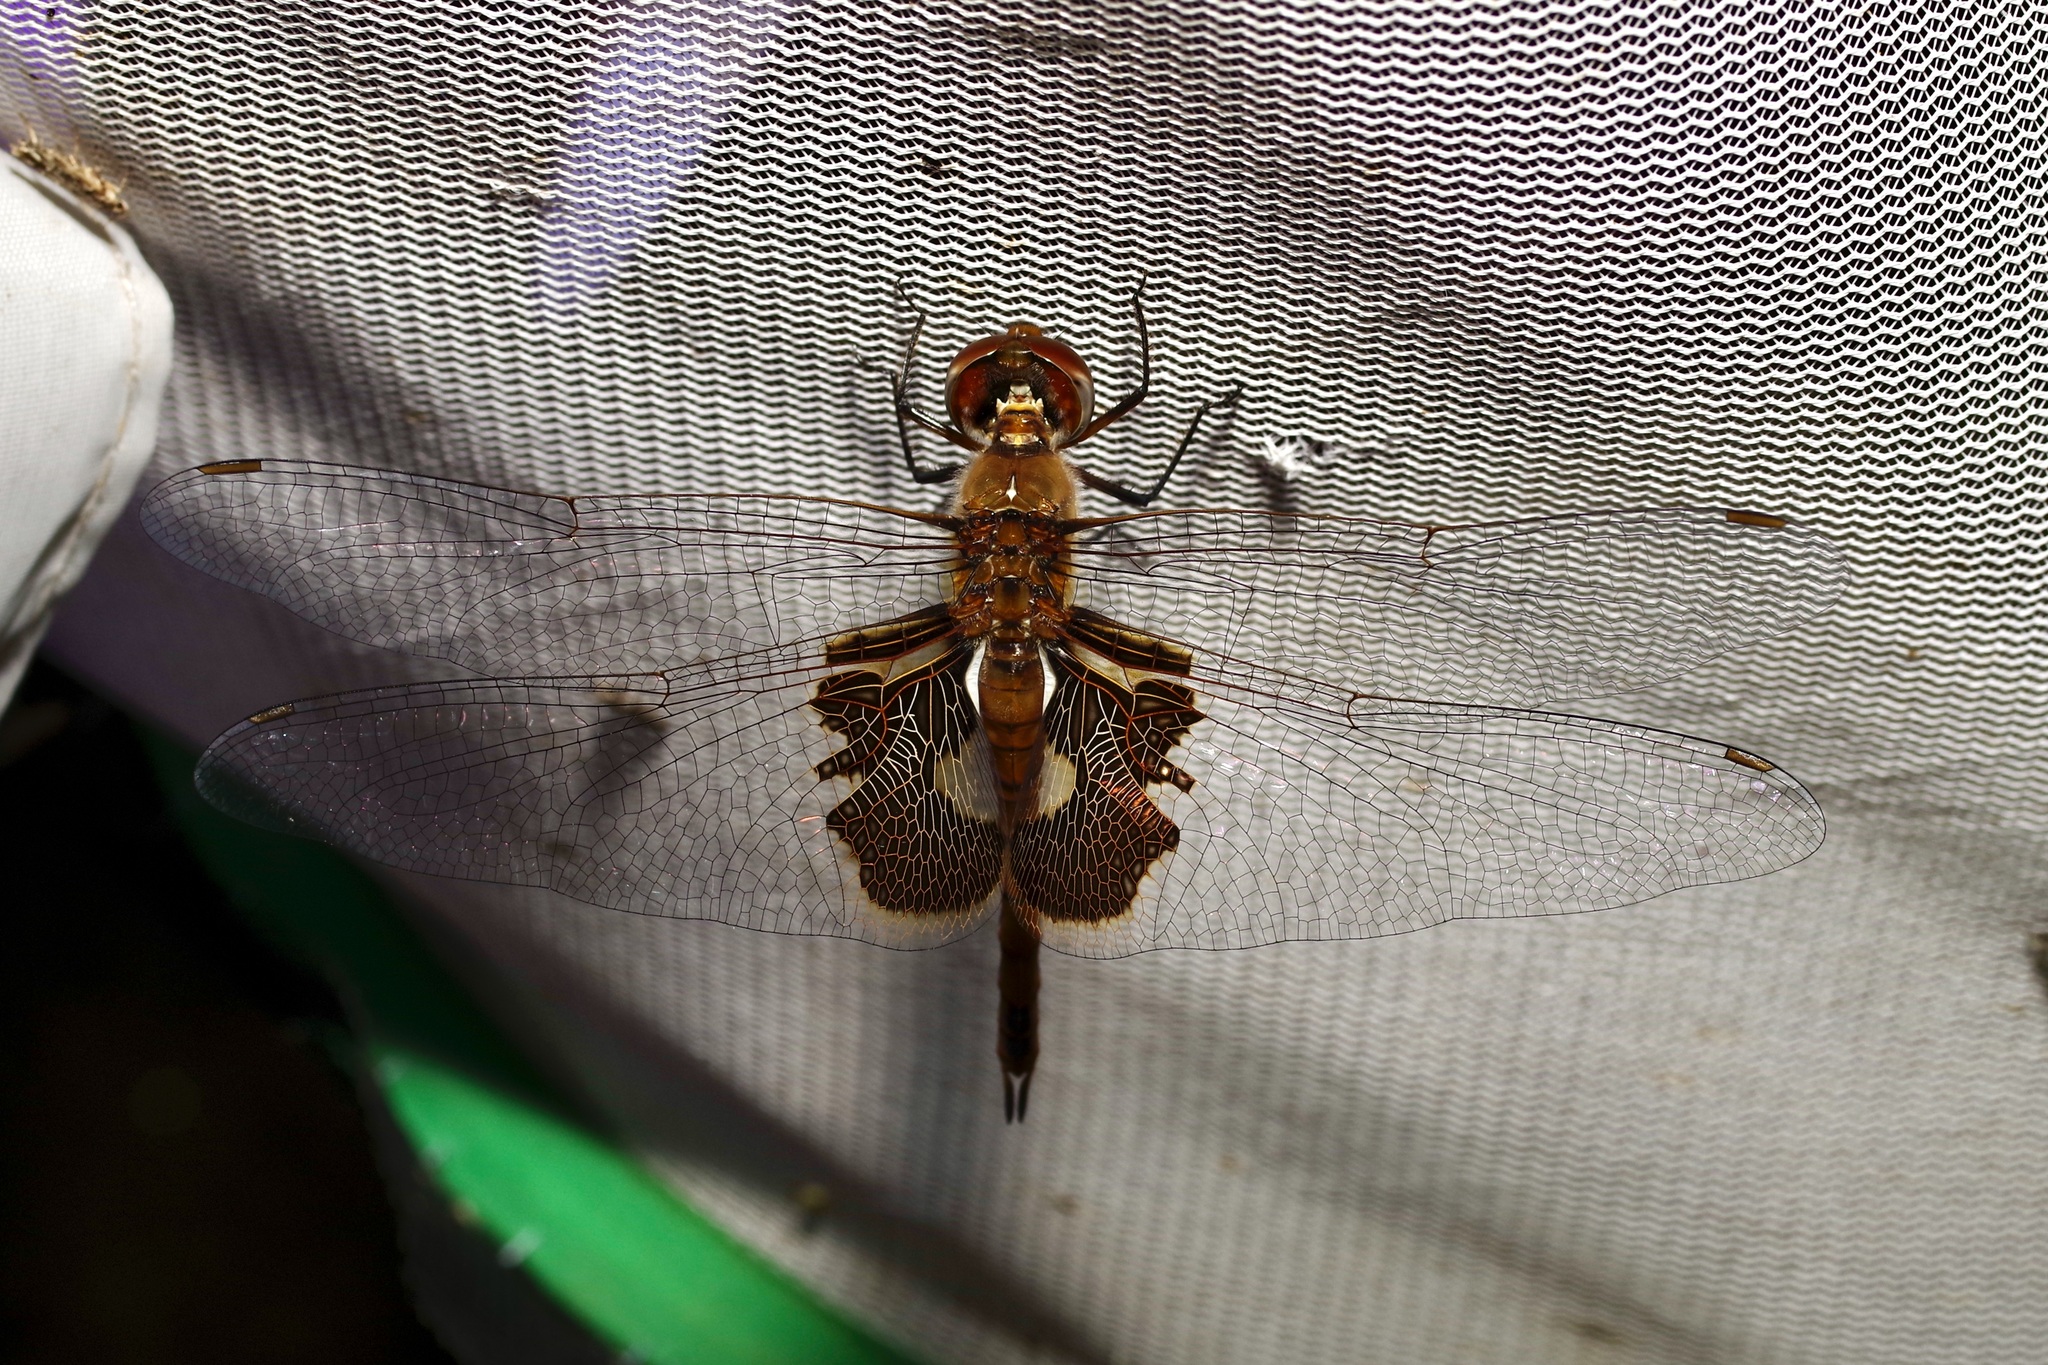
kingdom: Animalia
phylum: Arthropoda
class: Insecta
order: Odonata
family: Libellulidae
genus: Tramea
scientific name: Tramea onusta
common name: Red saddlebags
